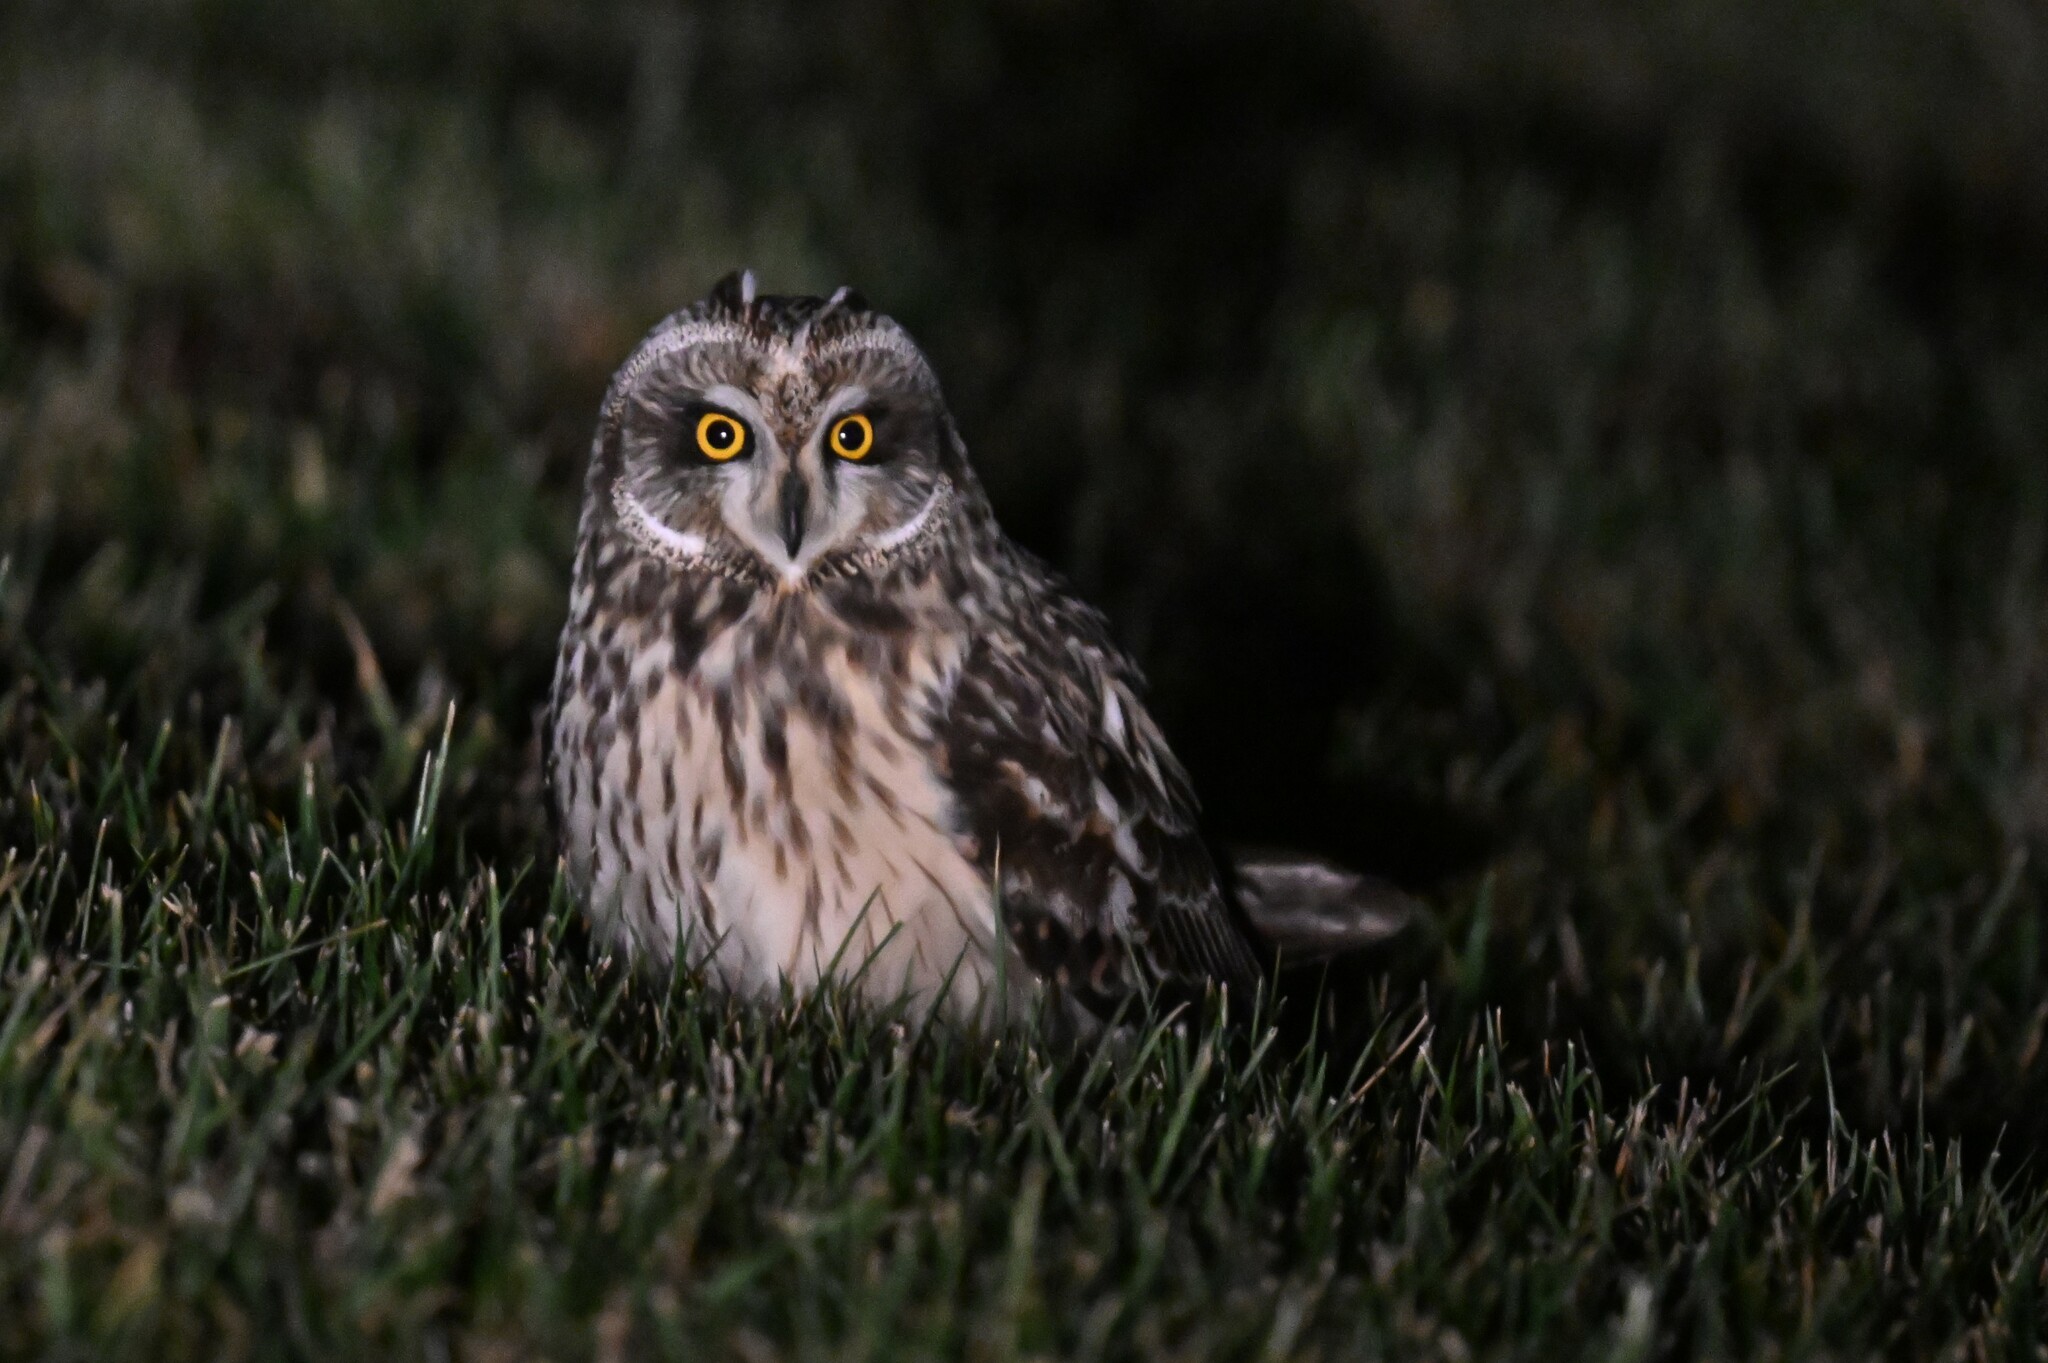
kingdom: Animalia
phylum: Chordata
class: Aves
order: Strigiformes
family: Strigidae
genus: Asio
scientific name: Asio flammeus
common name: Short-eared owl
